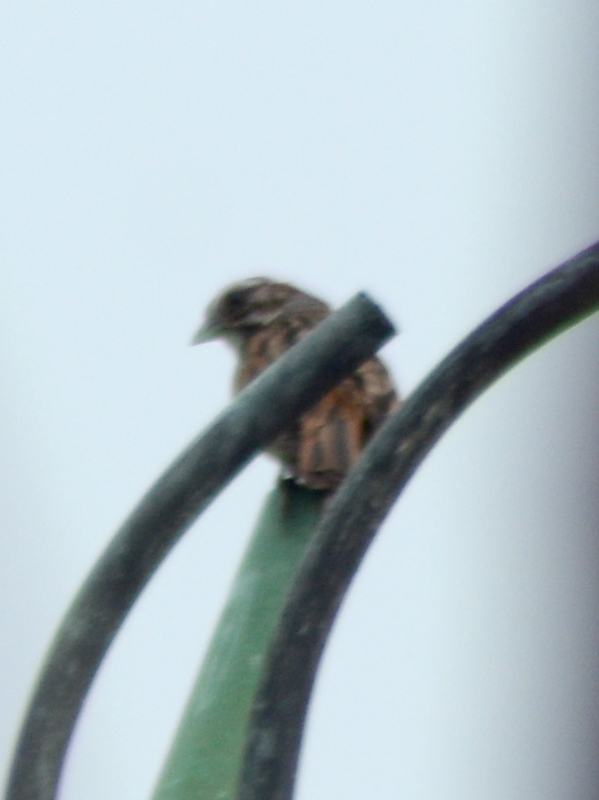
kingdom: Animalia
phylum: Chordata
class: Aves
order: Passeriformes
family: Passerellidae
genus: Melospiza
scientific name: Melospiza melodia
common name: Song sparrow
